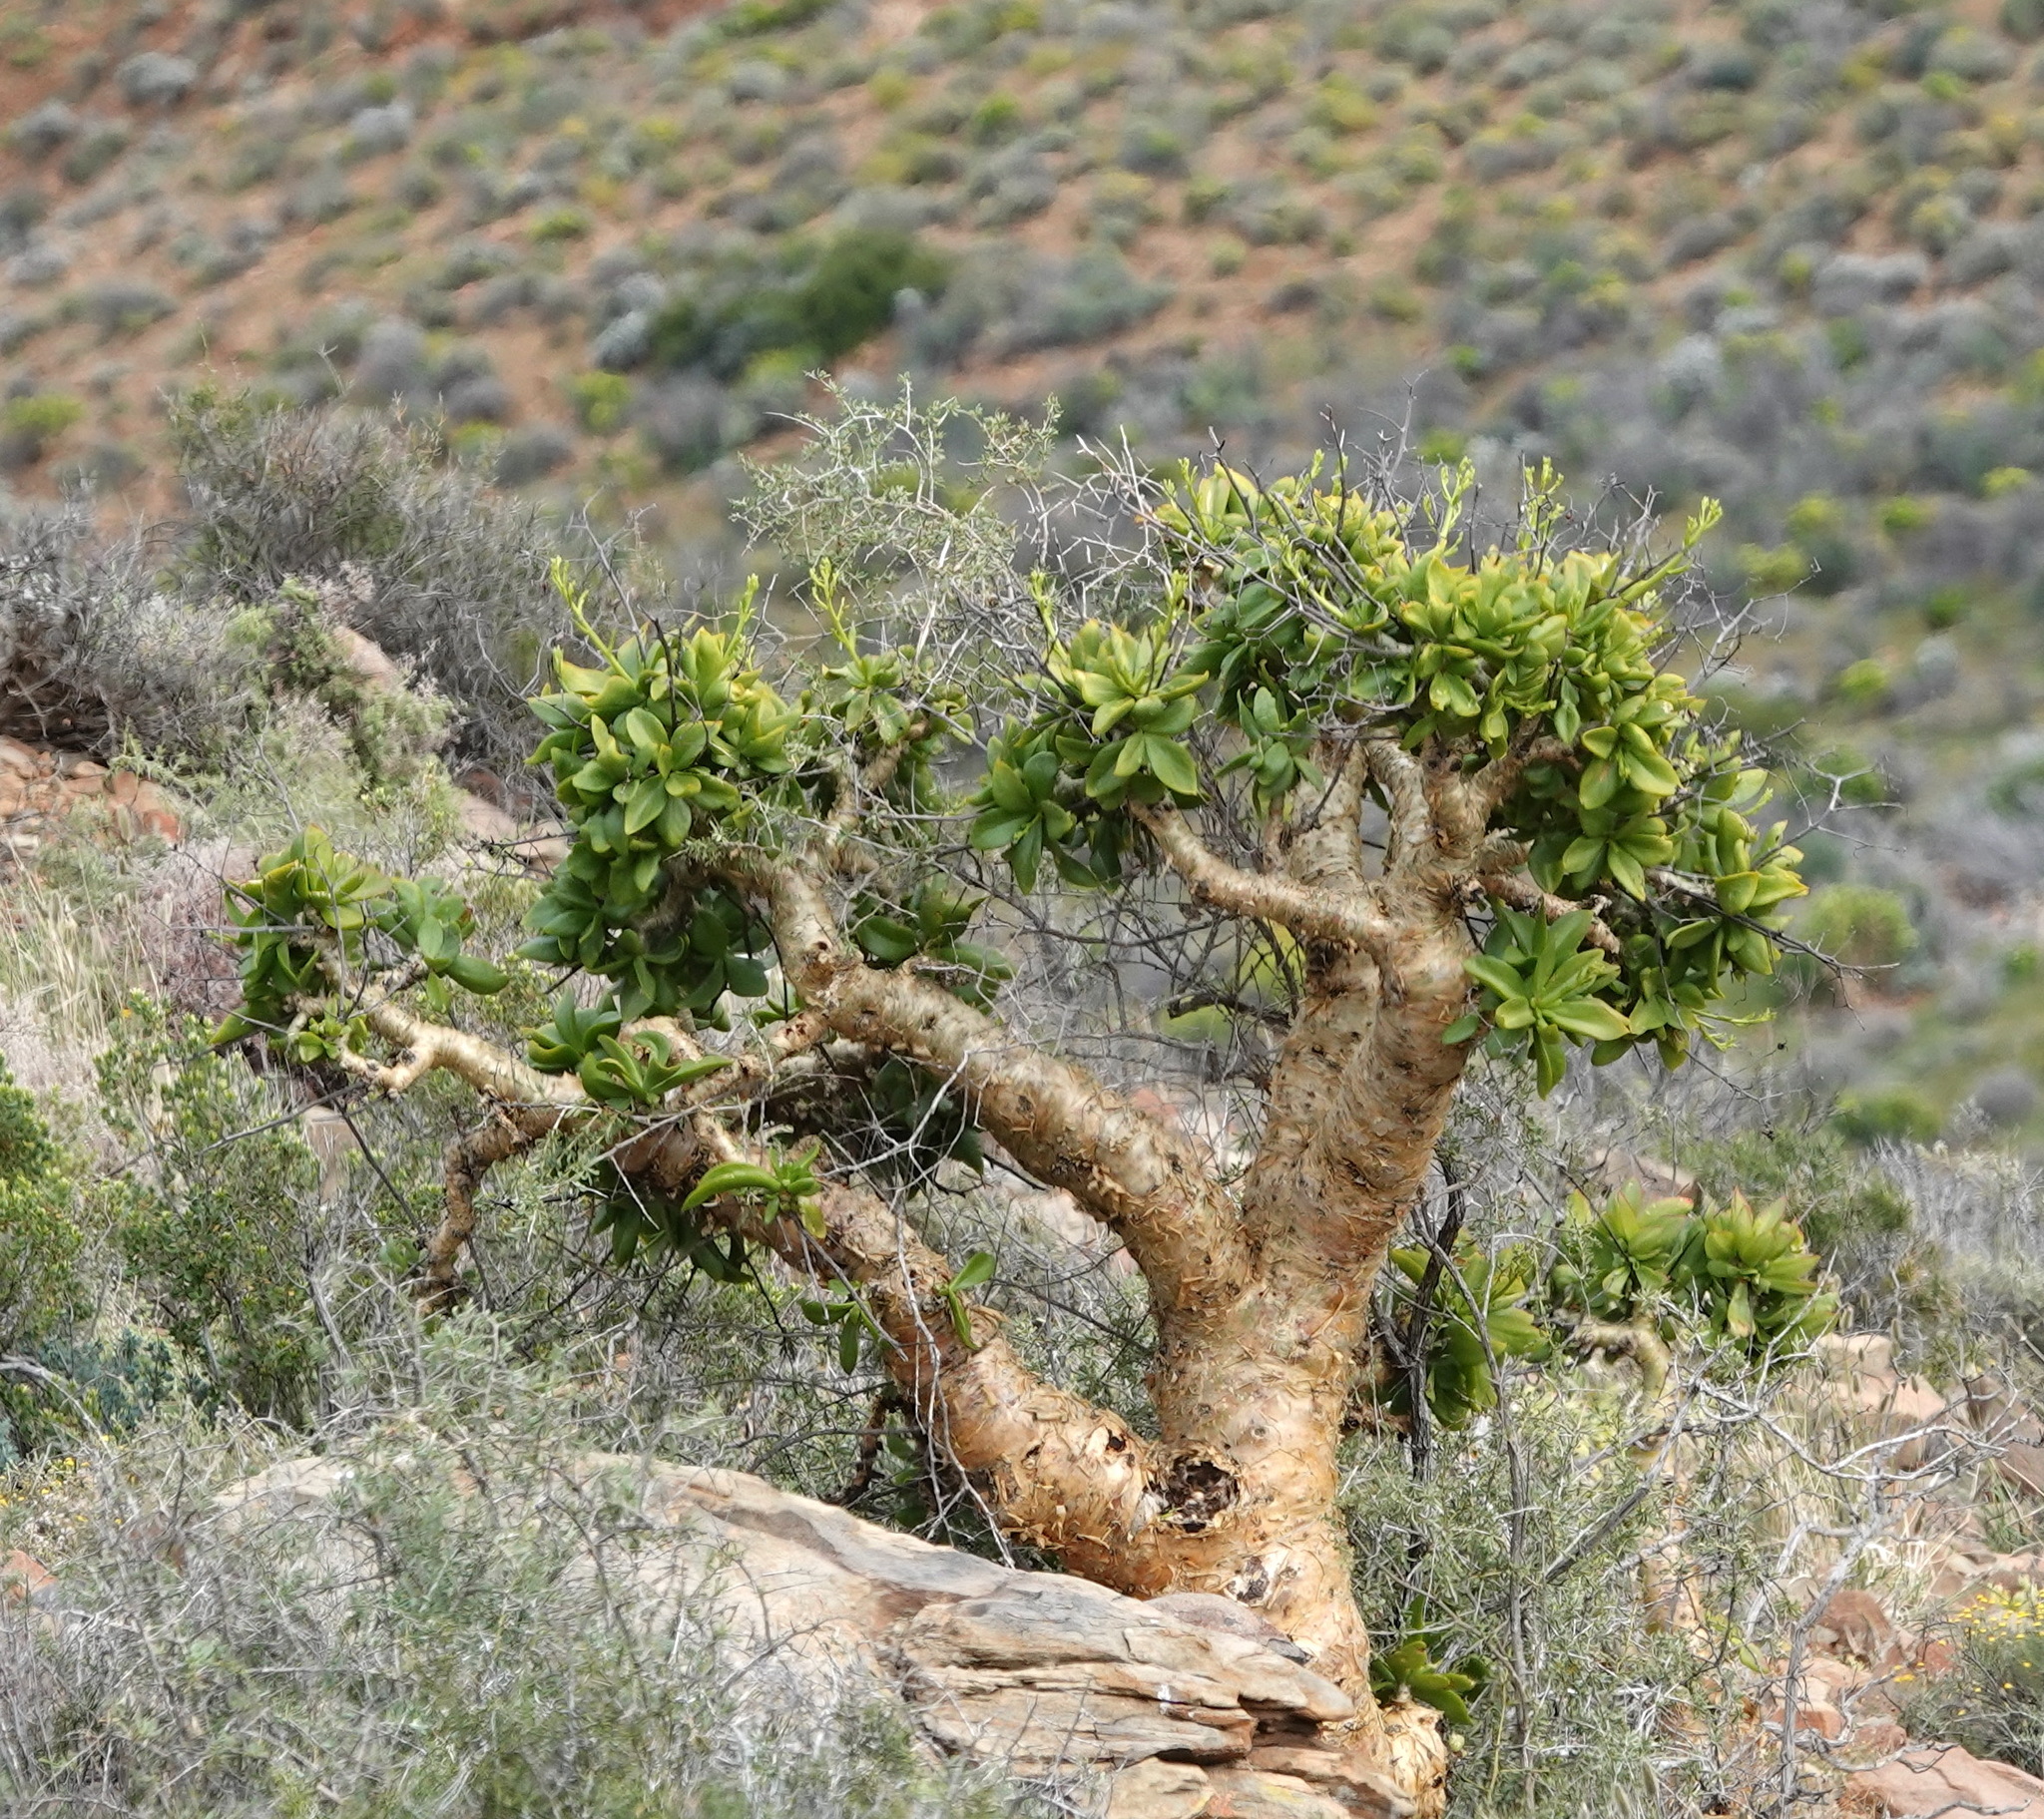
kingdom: Plantae
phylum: Tracheophyta
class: Magnoliopsida
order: Saxifragales
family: Crassulaceae
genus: Tylecodon
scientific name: Tylecodon paniculatus
